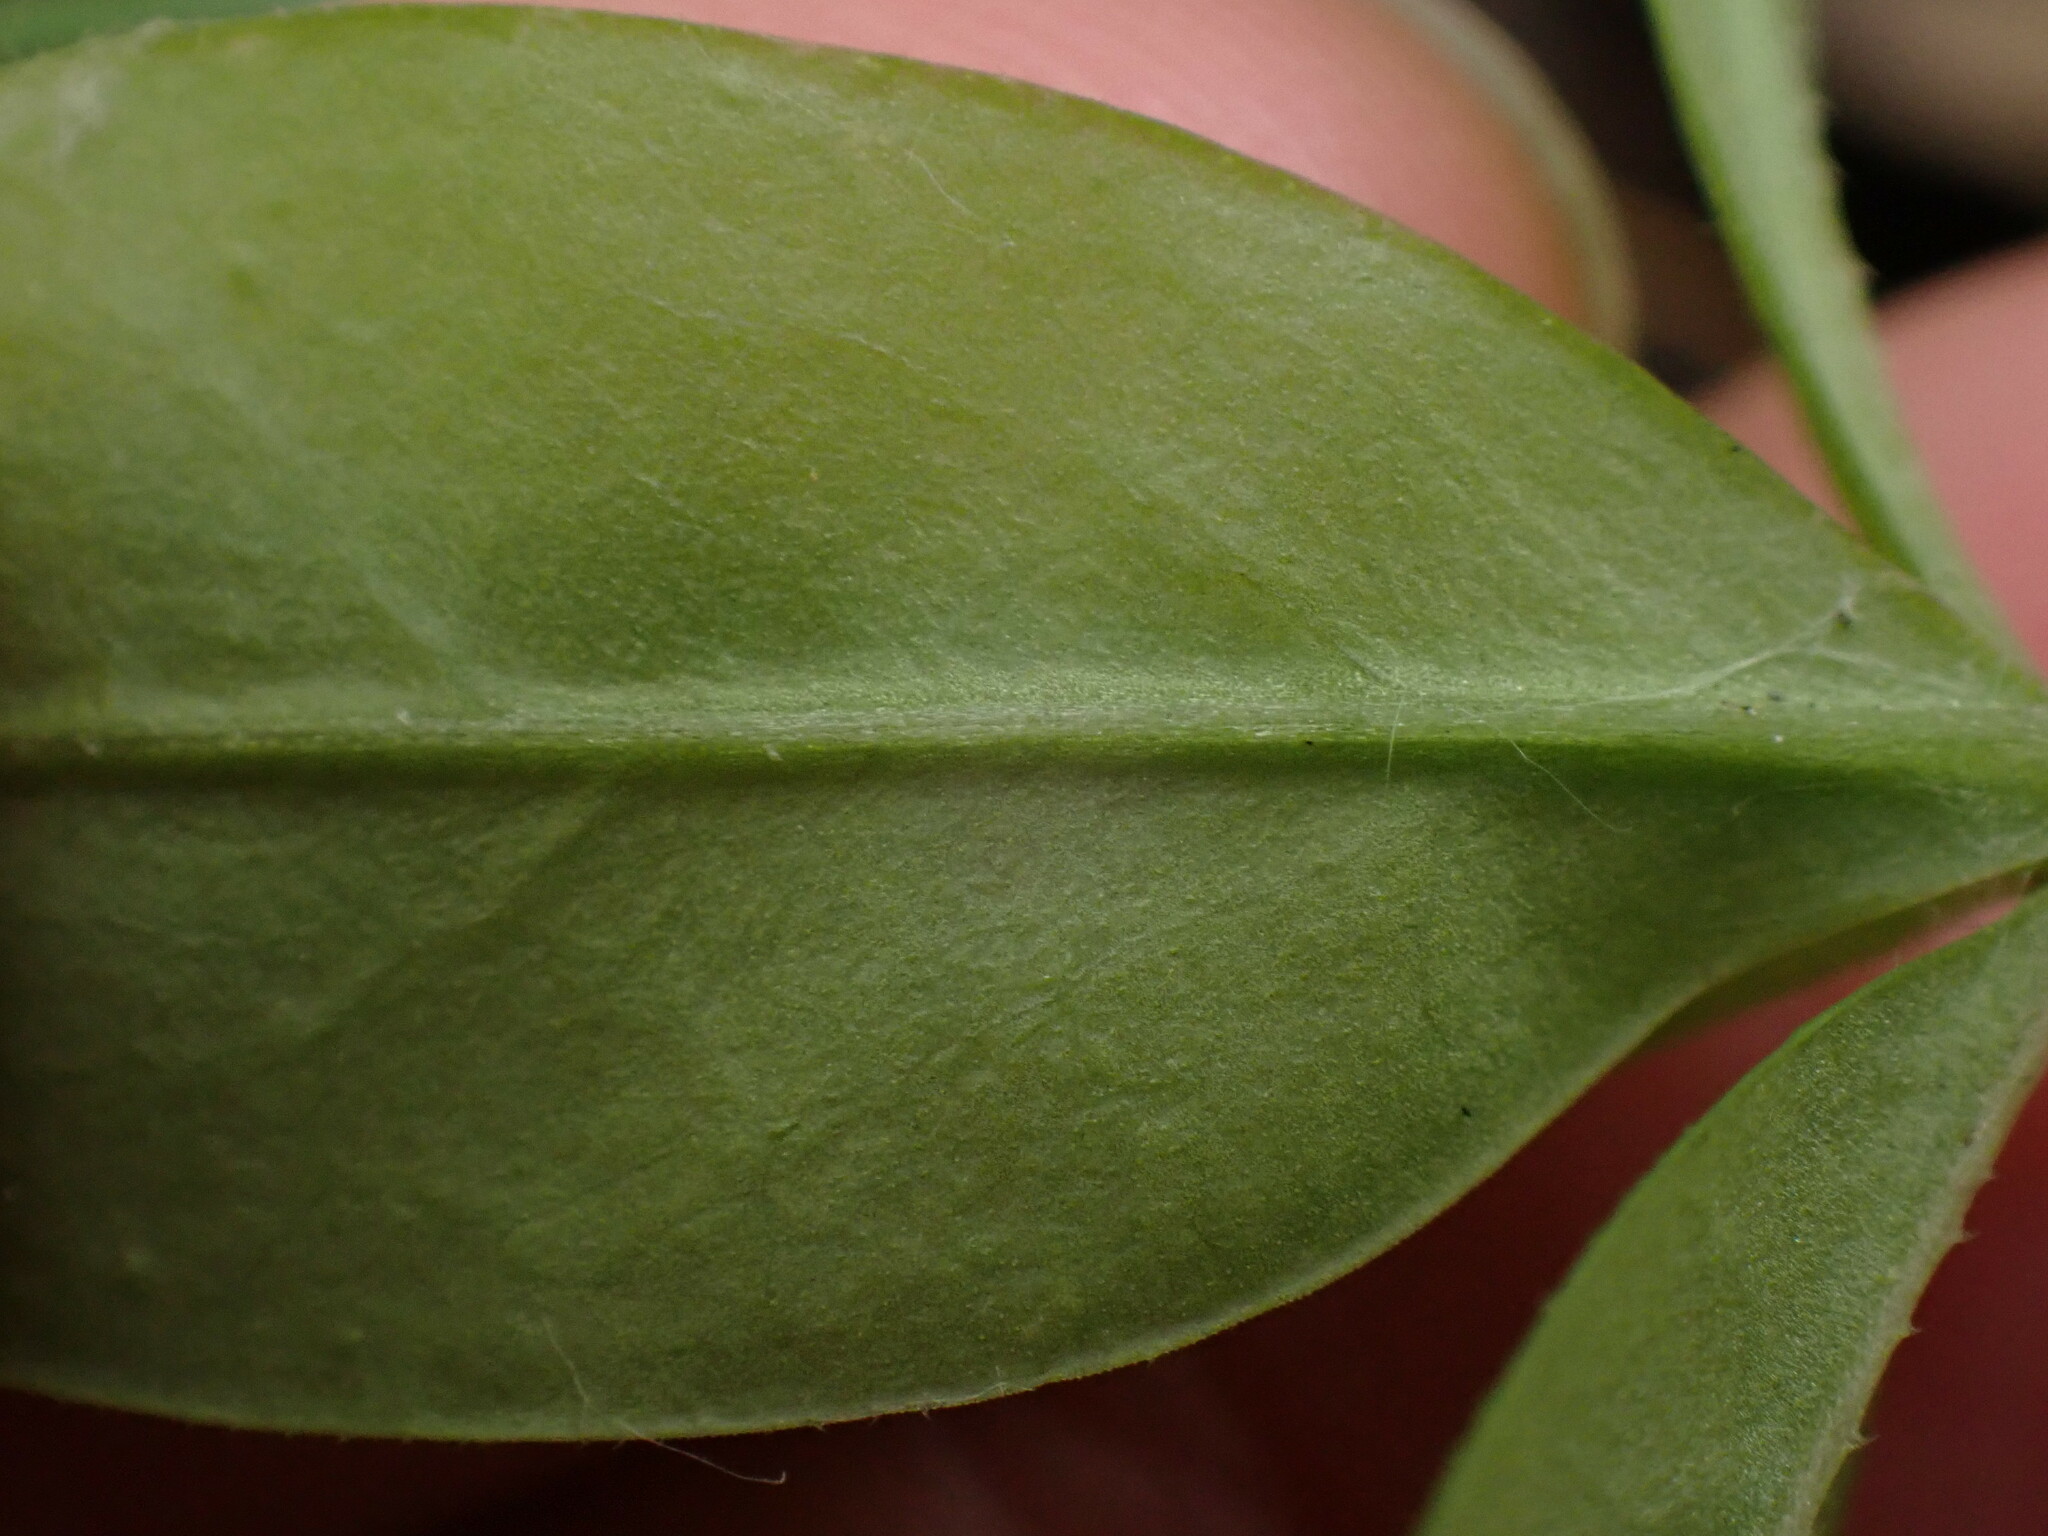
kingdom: Plantae
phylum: Tracheophyta
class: Magnoliopsida
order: Gentianales
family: Rubiaceae
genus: Galium
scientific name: Galium triflorum
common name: Fragrant bedstraw
